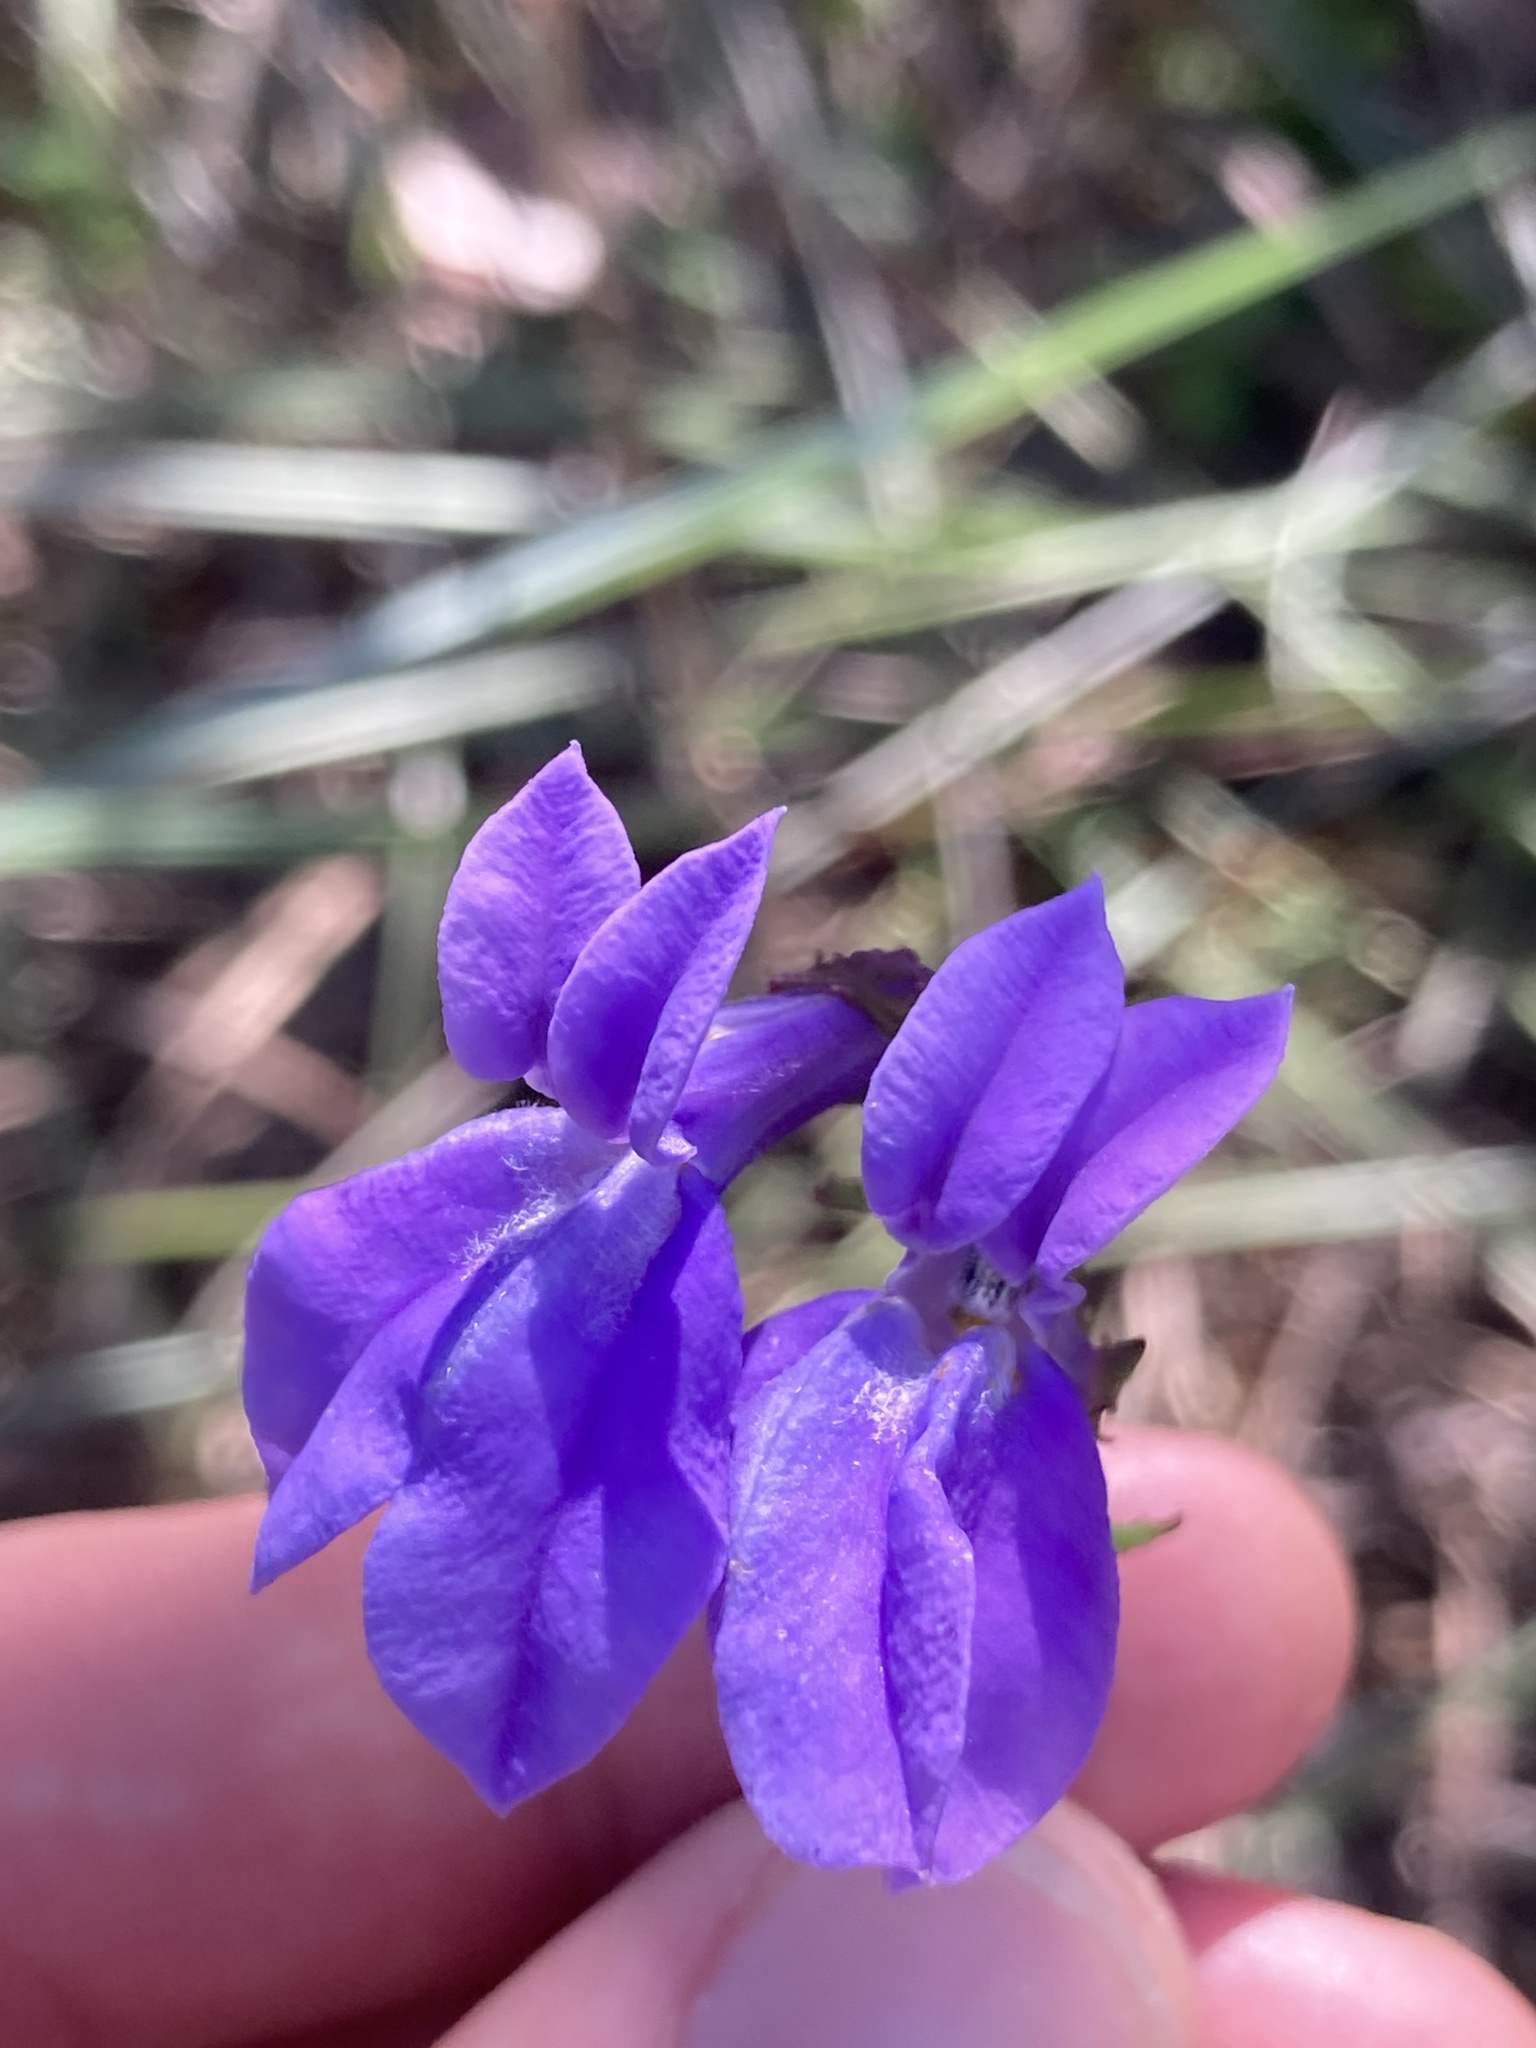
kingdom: Plantae
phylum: Tracheophyta
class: Magnoliopsida
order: Asterales
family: Campanulaceae
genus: Lobelia
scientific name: Lobelia glandulosa
